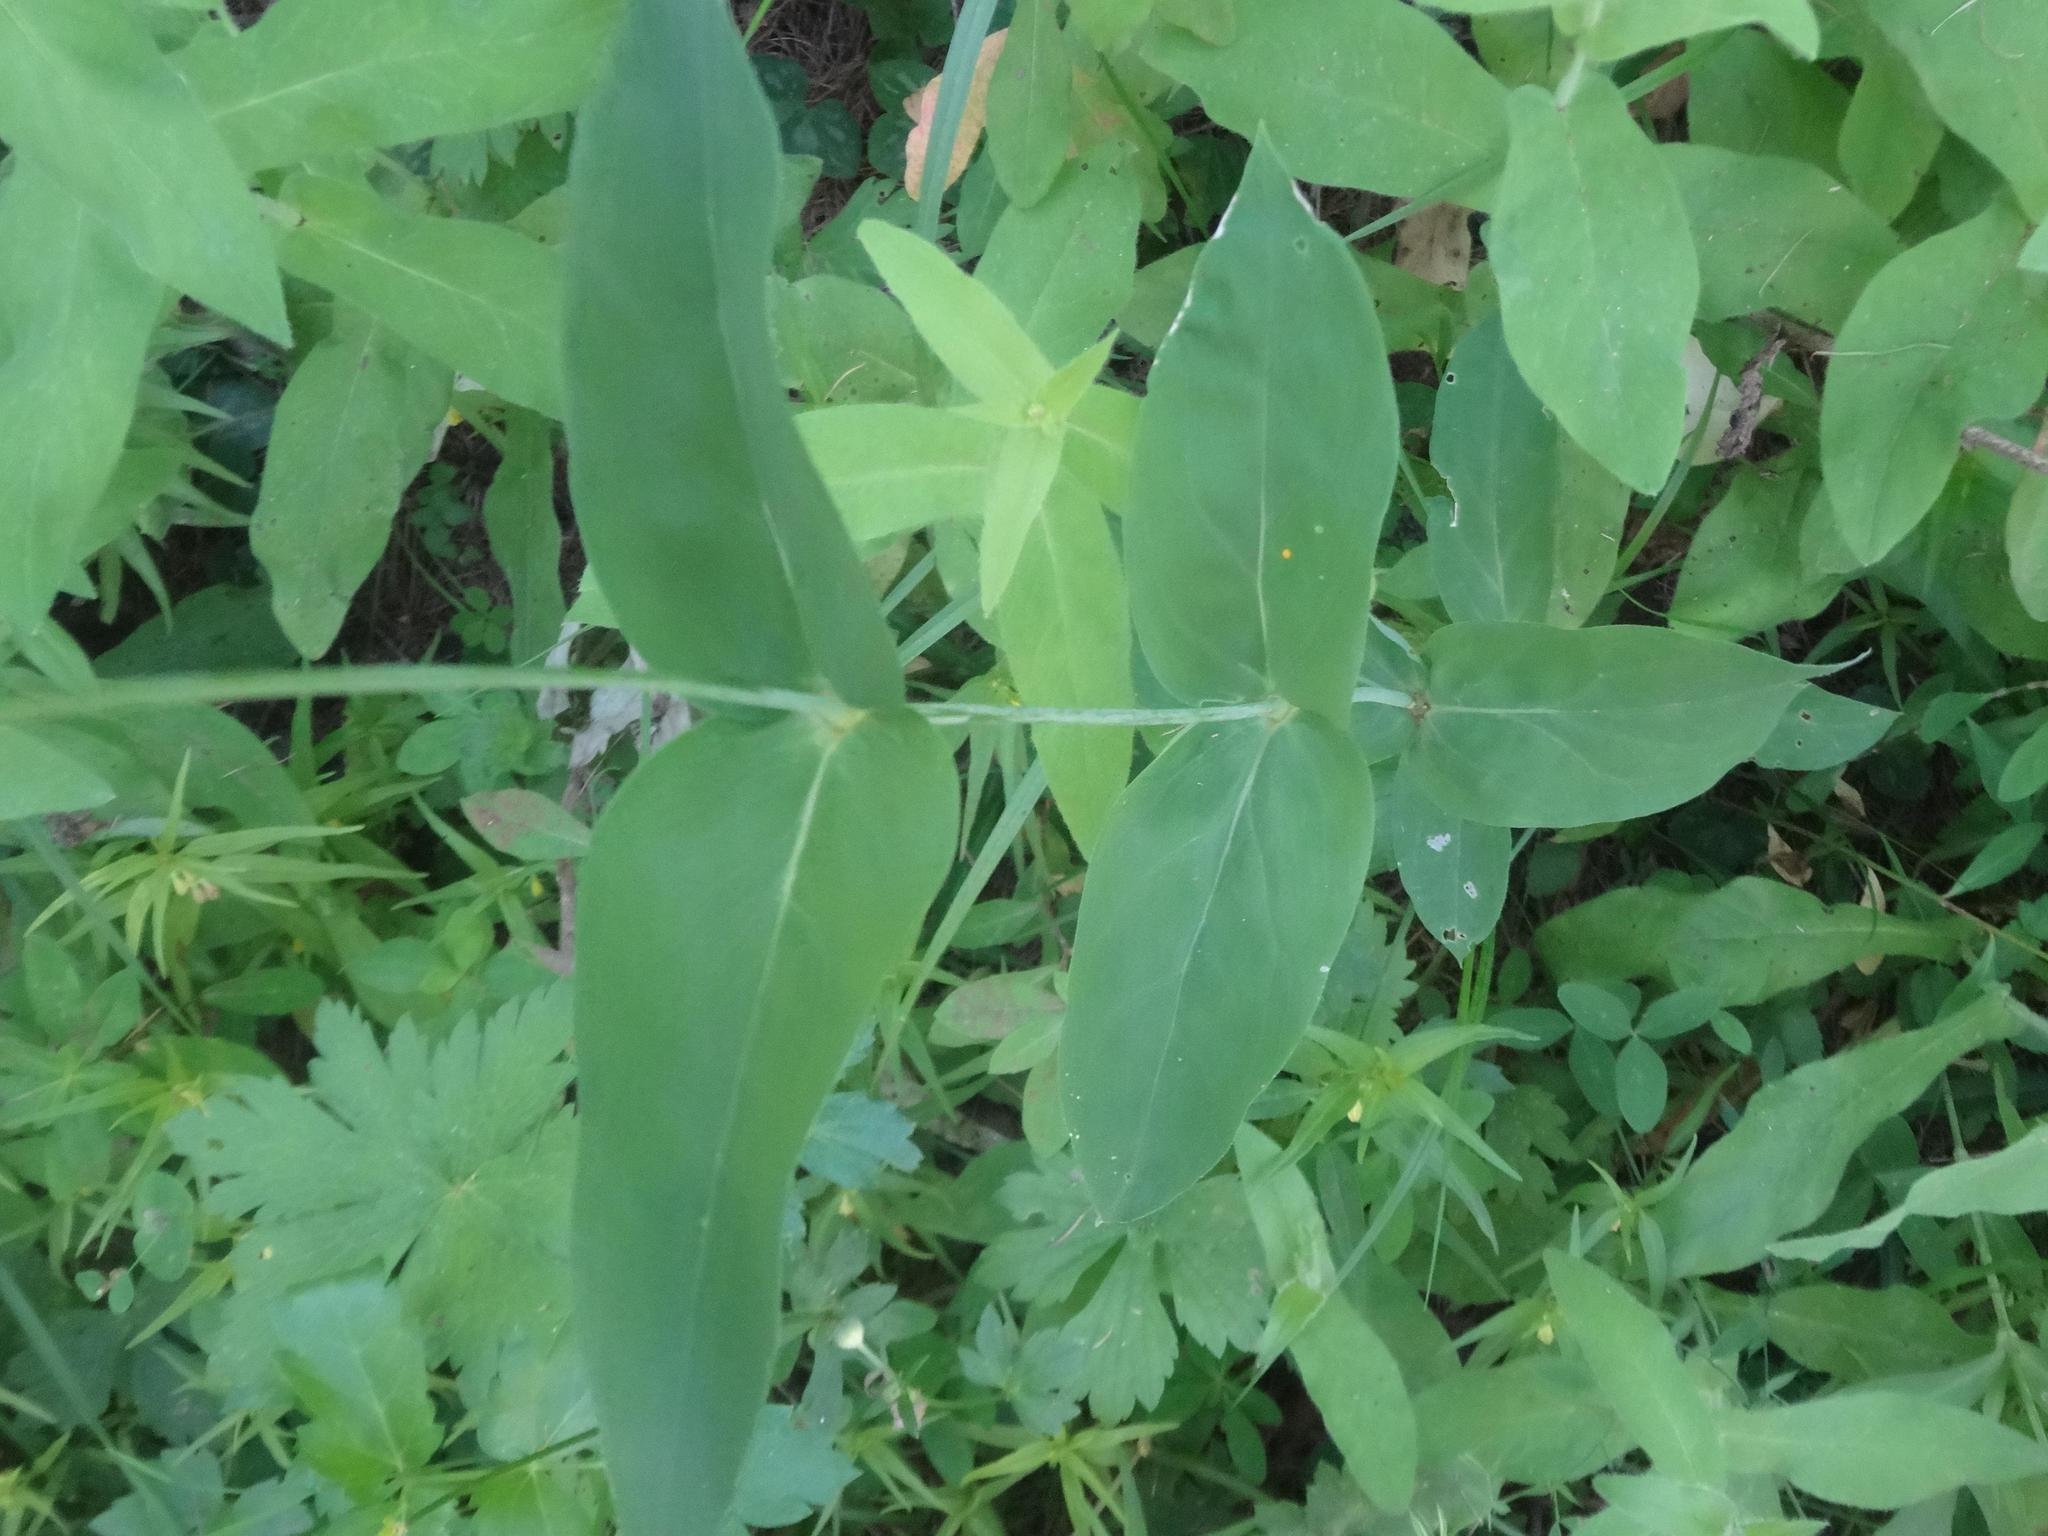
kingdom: Plantae
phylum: Tracheophyta
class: Magnoliopsida
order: Caryophyllales
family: Caryophyllaceae
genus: Silene
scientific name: Silene vulgaris
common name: Bladder campion
